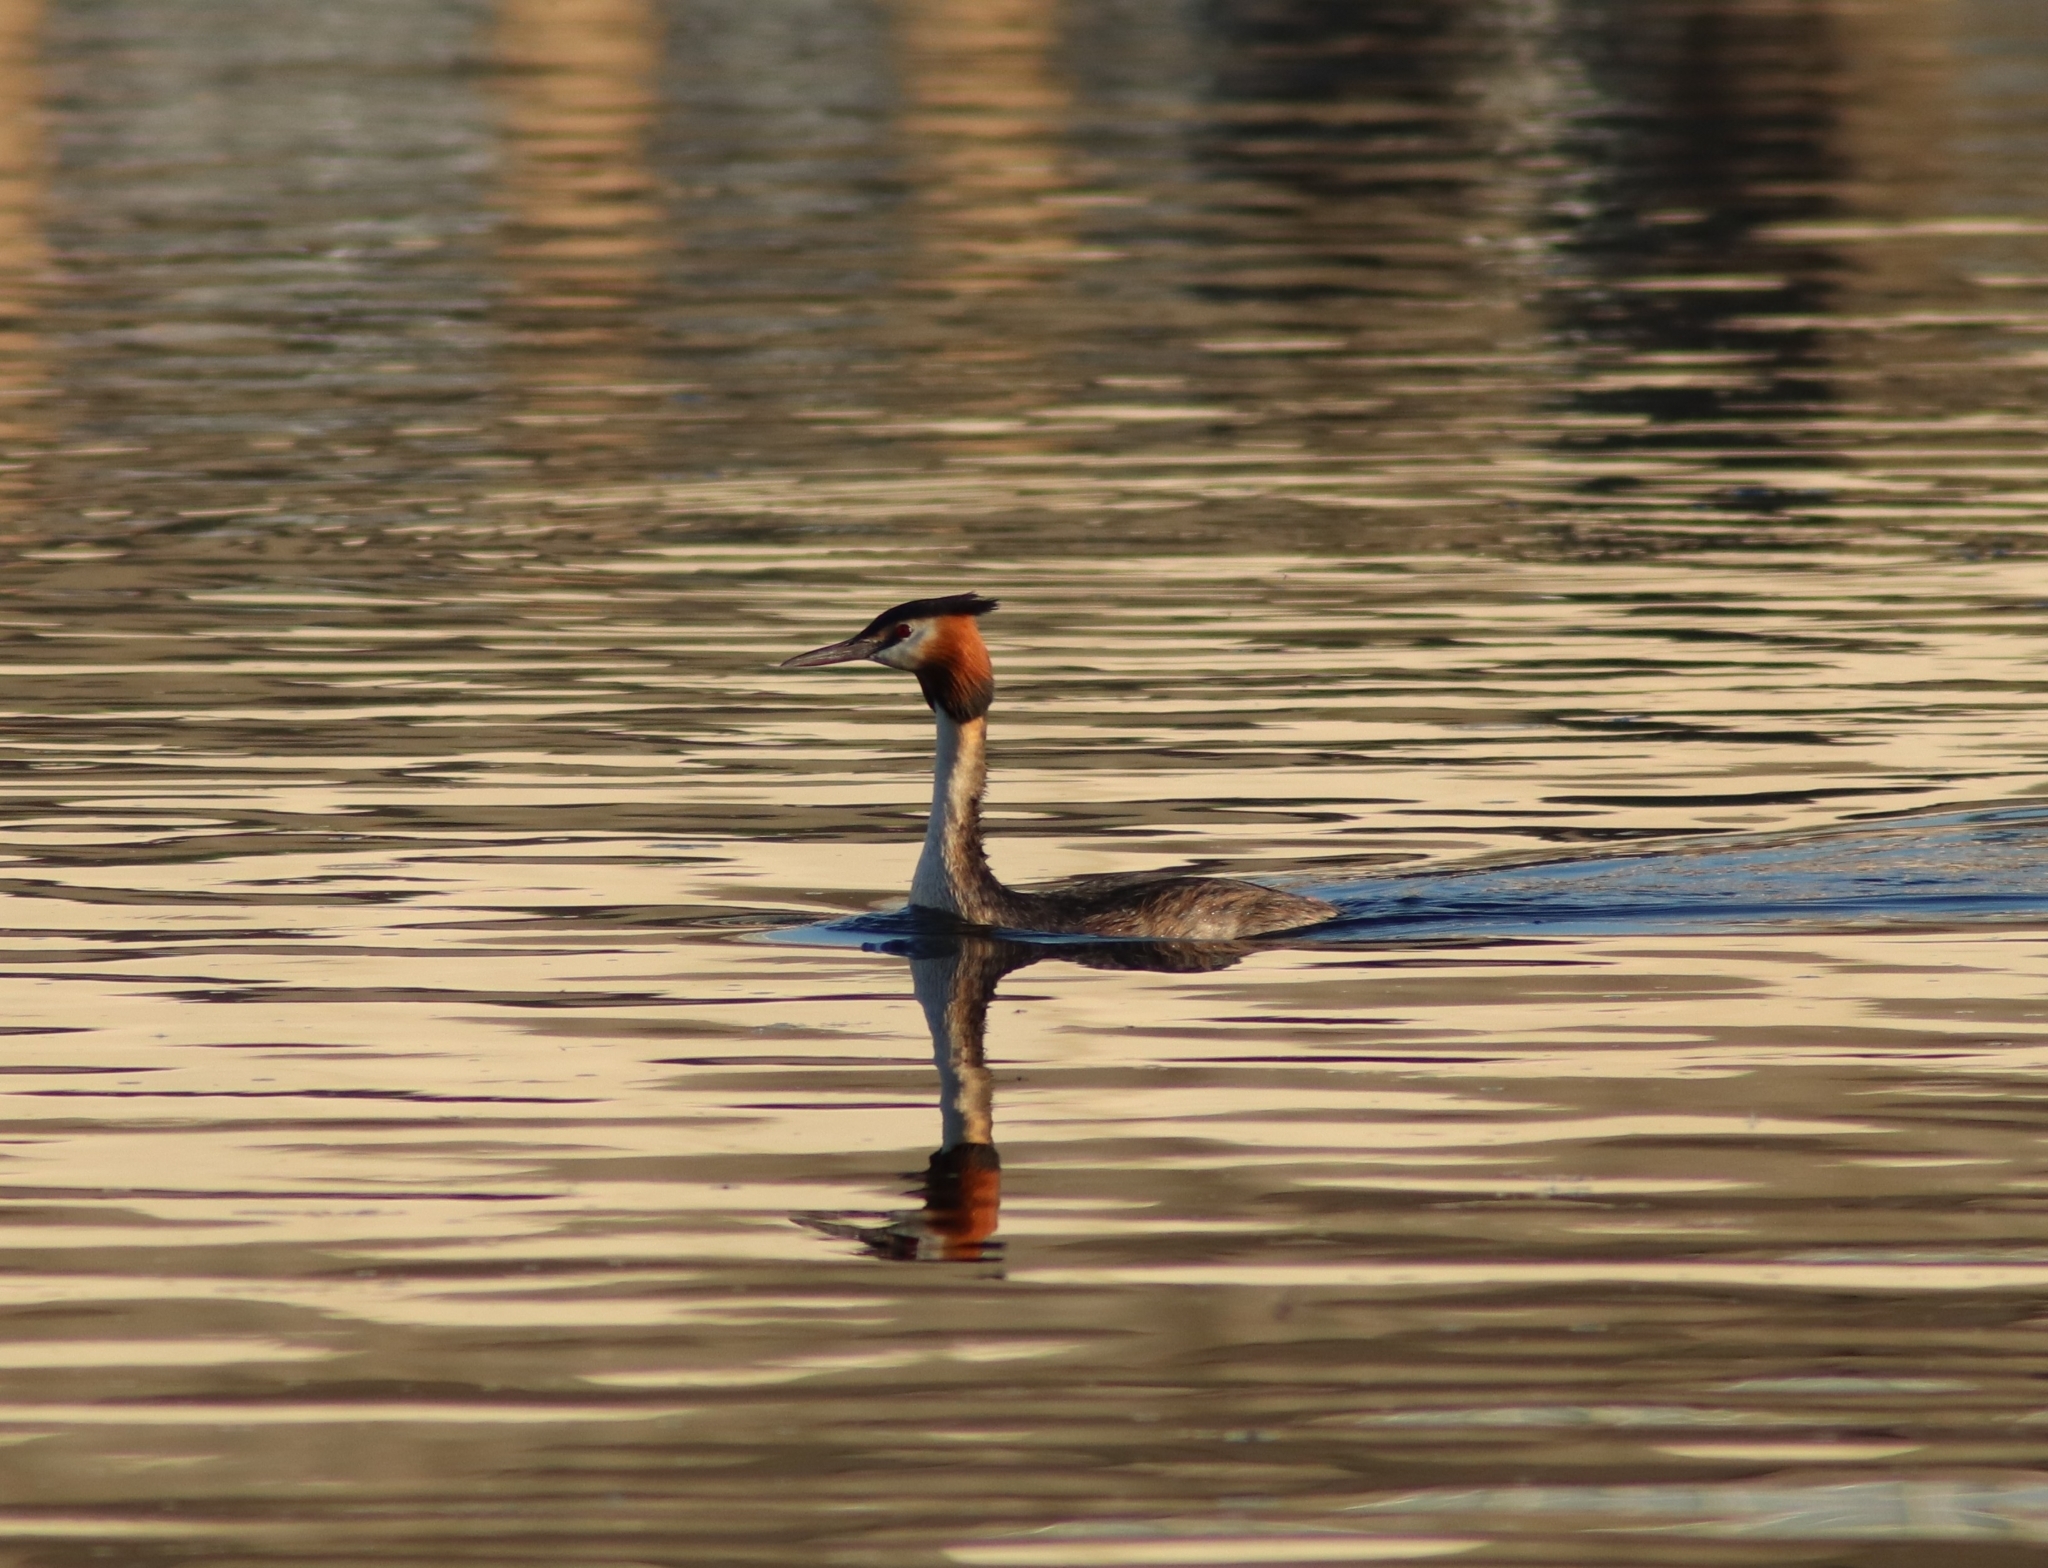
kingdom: Animalia
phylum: Chordata
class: Aves
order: Podicipediformes
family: Podicipedidae
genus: Podiceps
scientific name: Podiceps cristatus
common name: Great crested grebe
